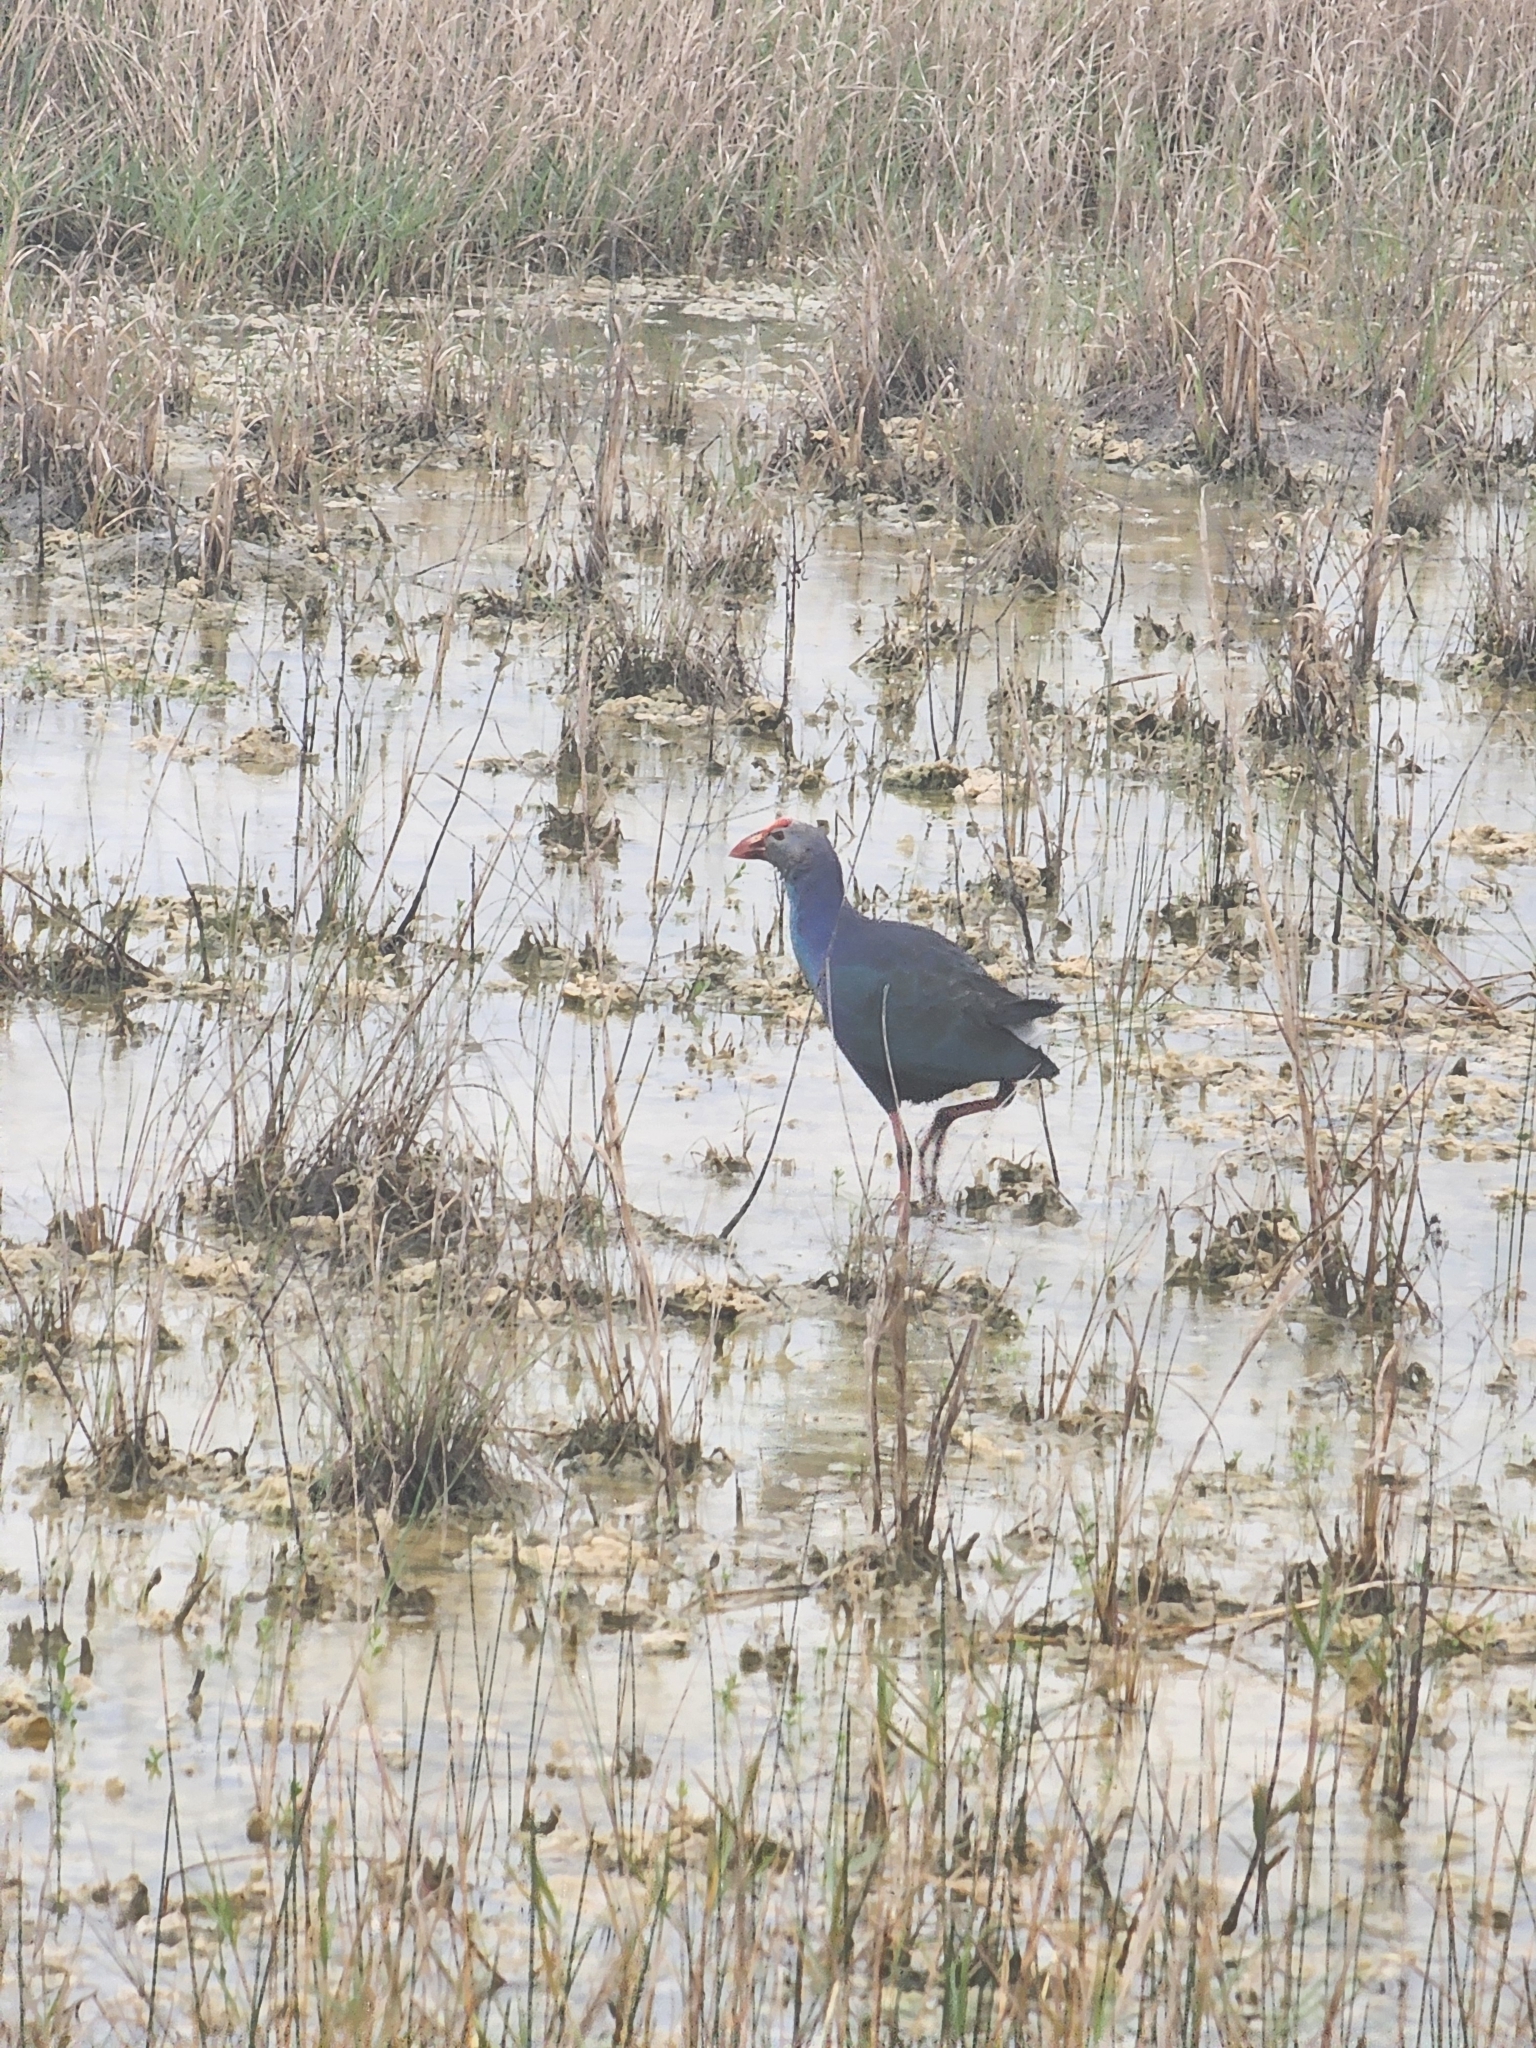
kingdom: Animalia
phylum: Chordata
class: Aves
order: Gruiformes
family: Rallidae
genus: Porphyrio
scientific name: Porphyrio porphyrio
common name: Purple swamphen
